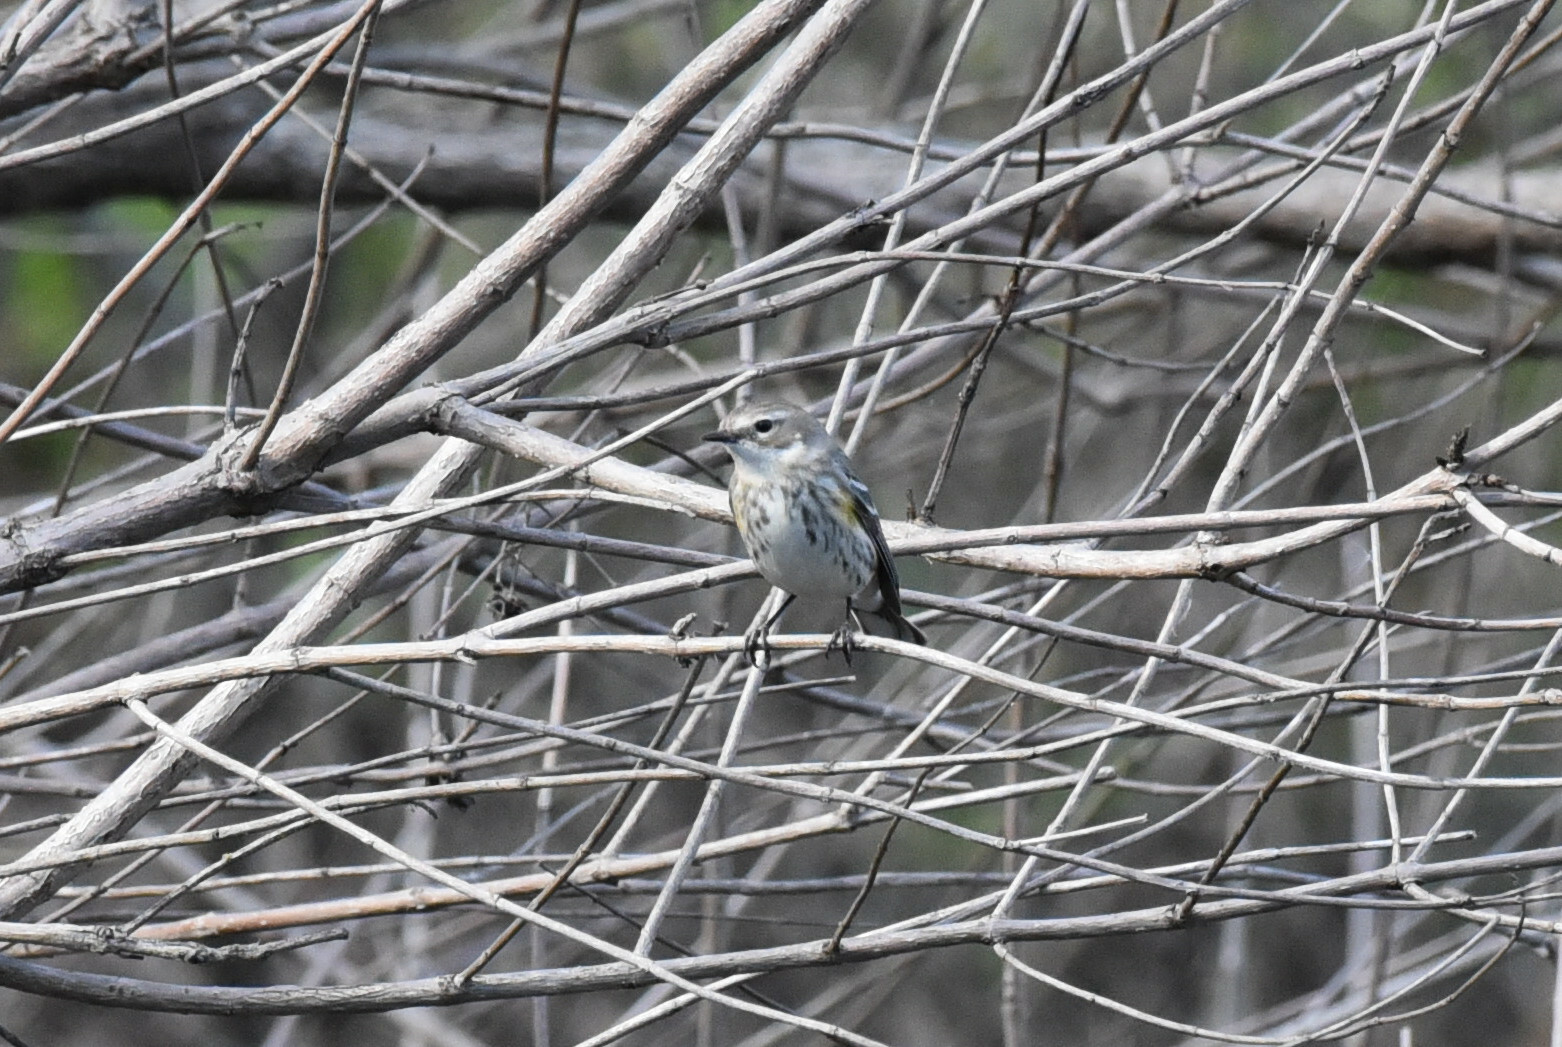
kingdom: Animalia
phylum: Chordata
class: Aves
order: Passeriformes
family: Parulidae
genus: Setophaga
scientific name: Setophaga coronata
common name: Myrtle warbler
